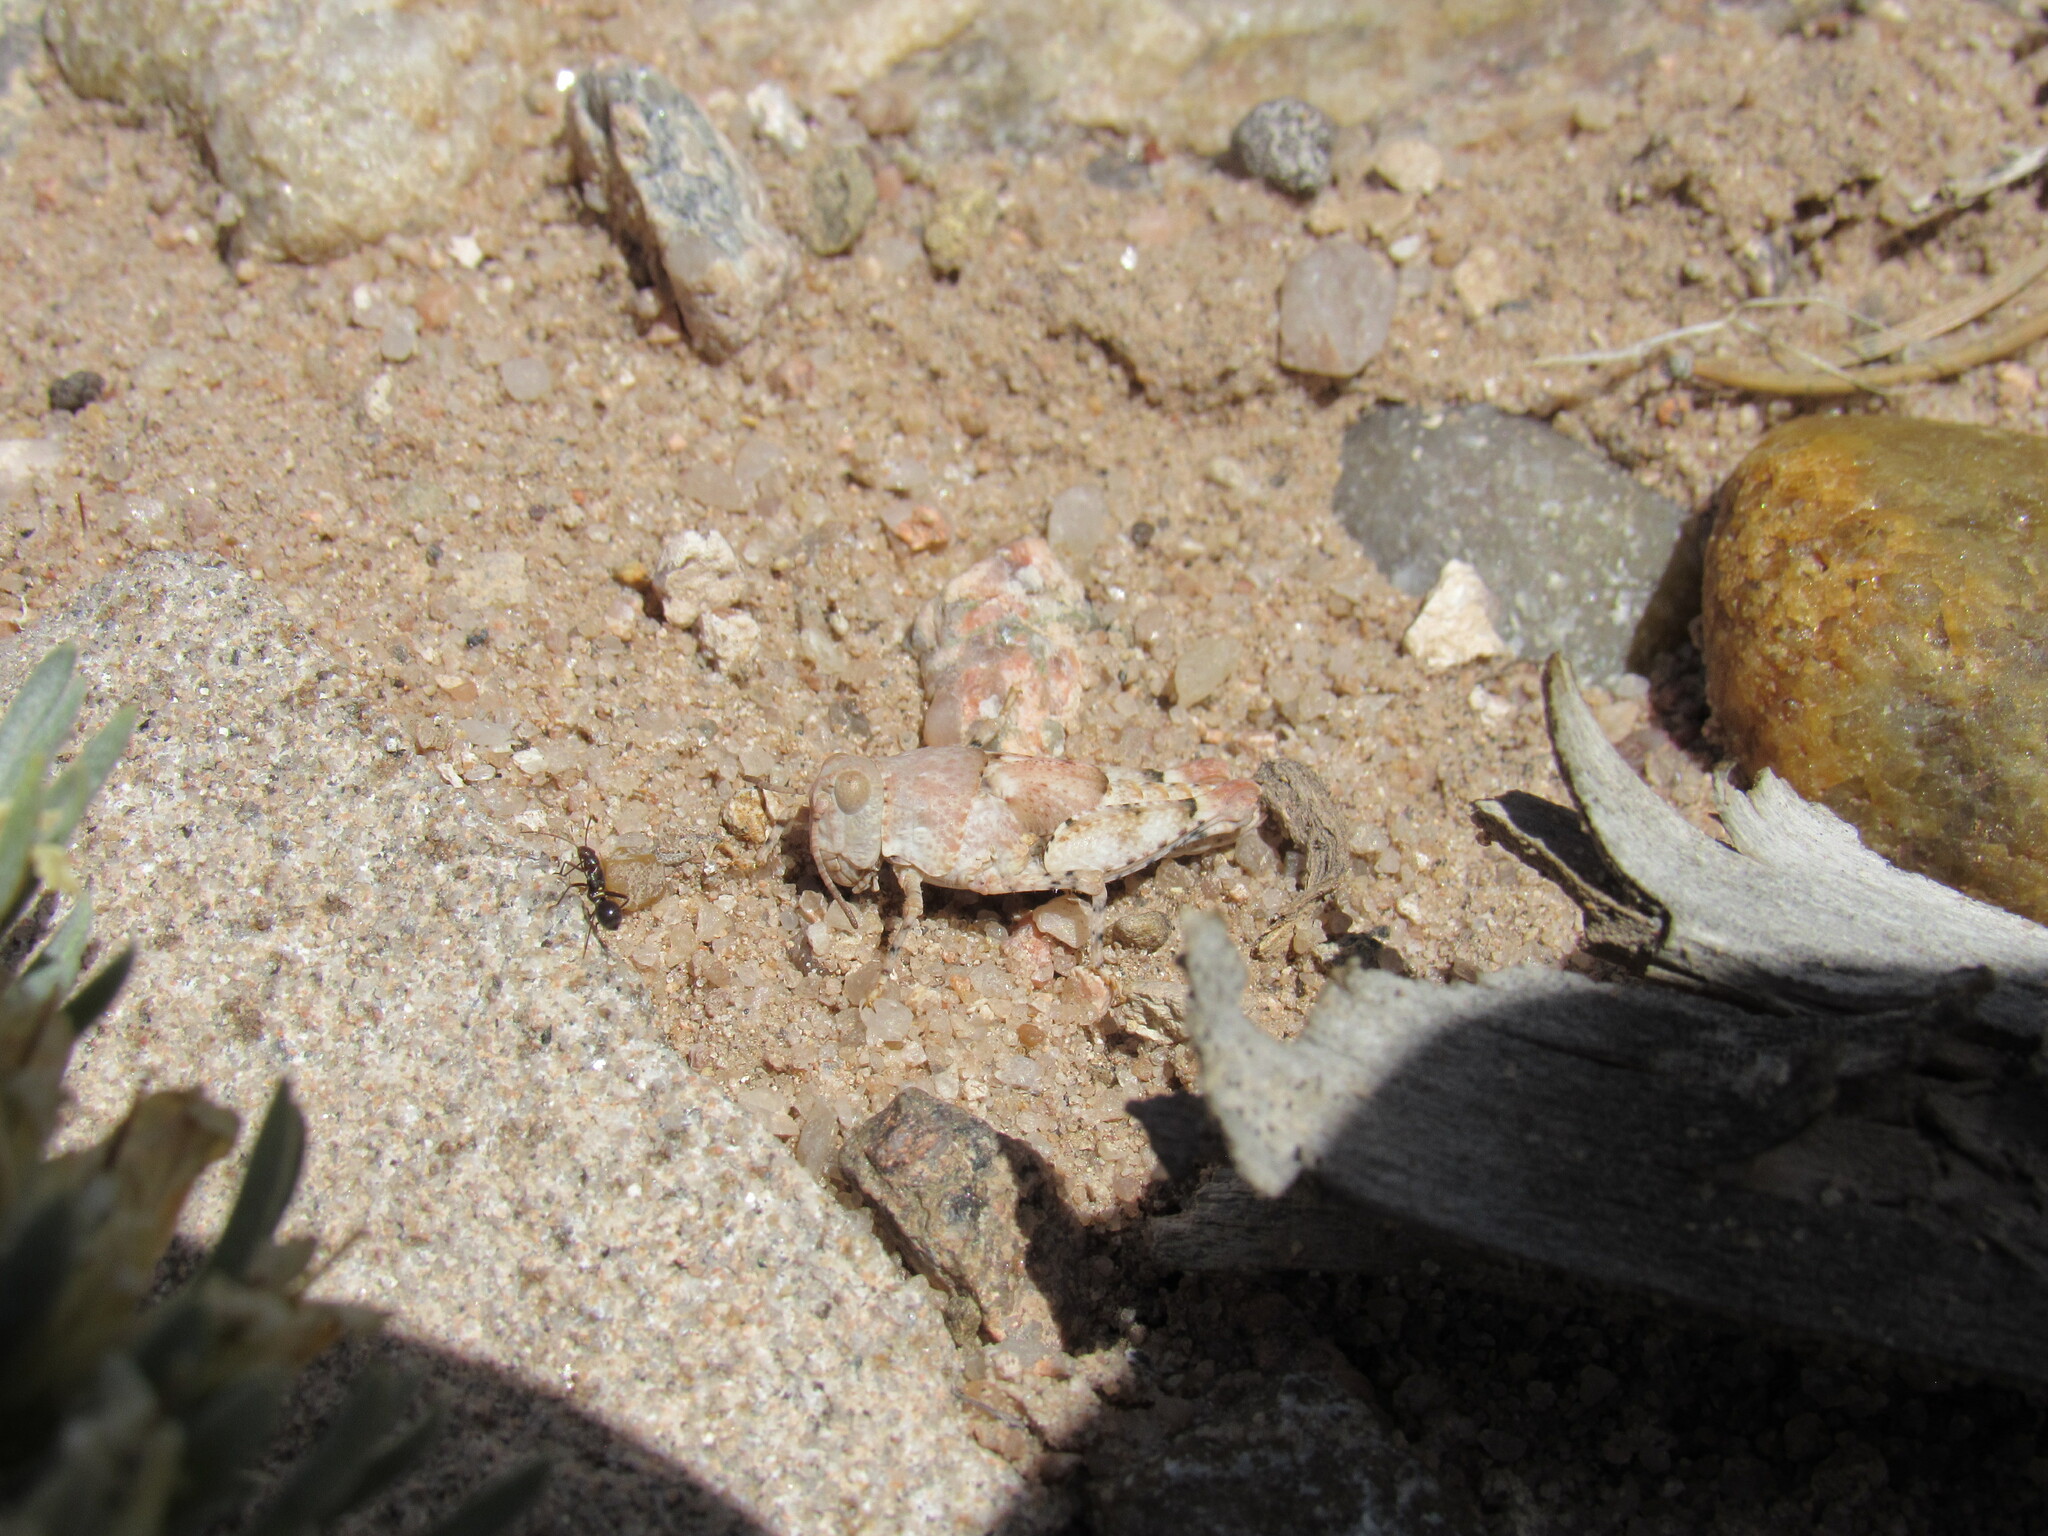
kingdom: Animalia
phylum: Arthropoda
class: Insecta
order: Orthoptera
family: Acrididae
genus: Cibolacris
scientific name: Cibolacris parviceps
